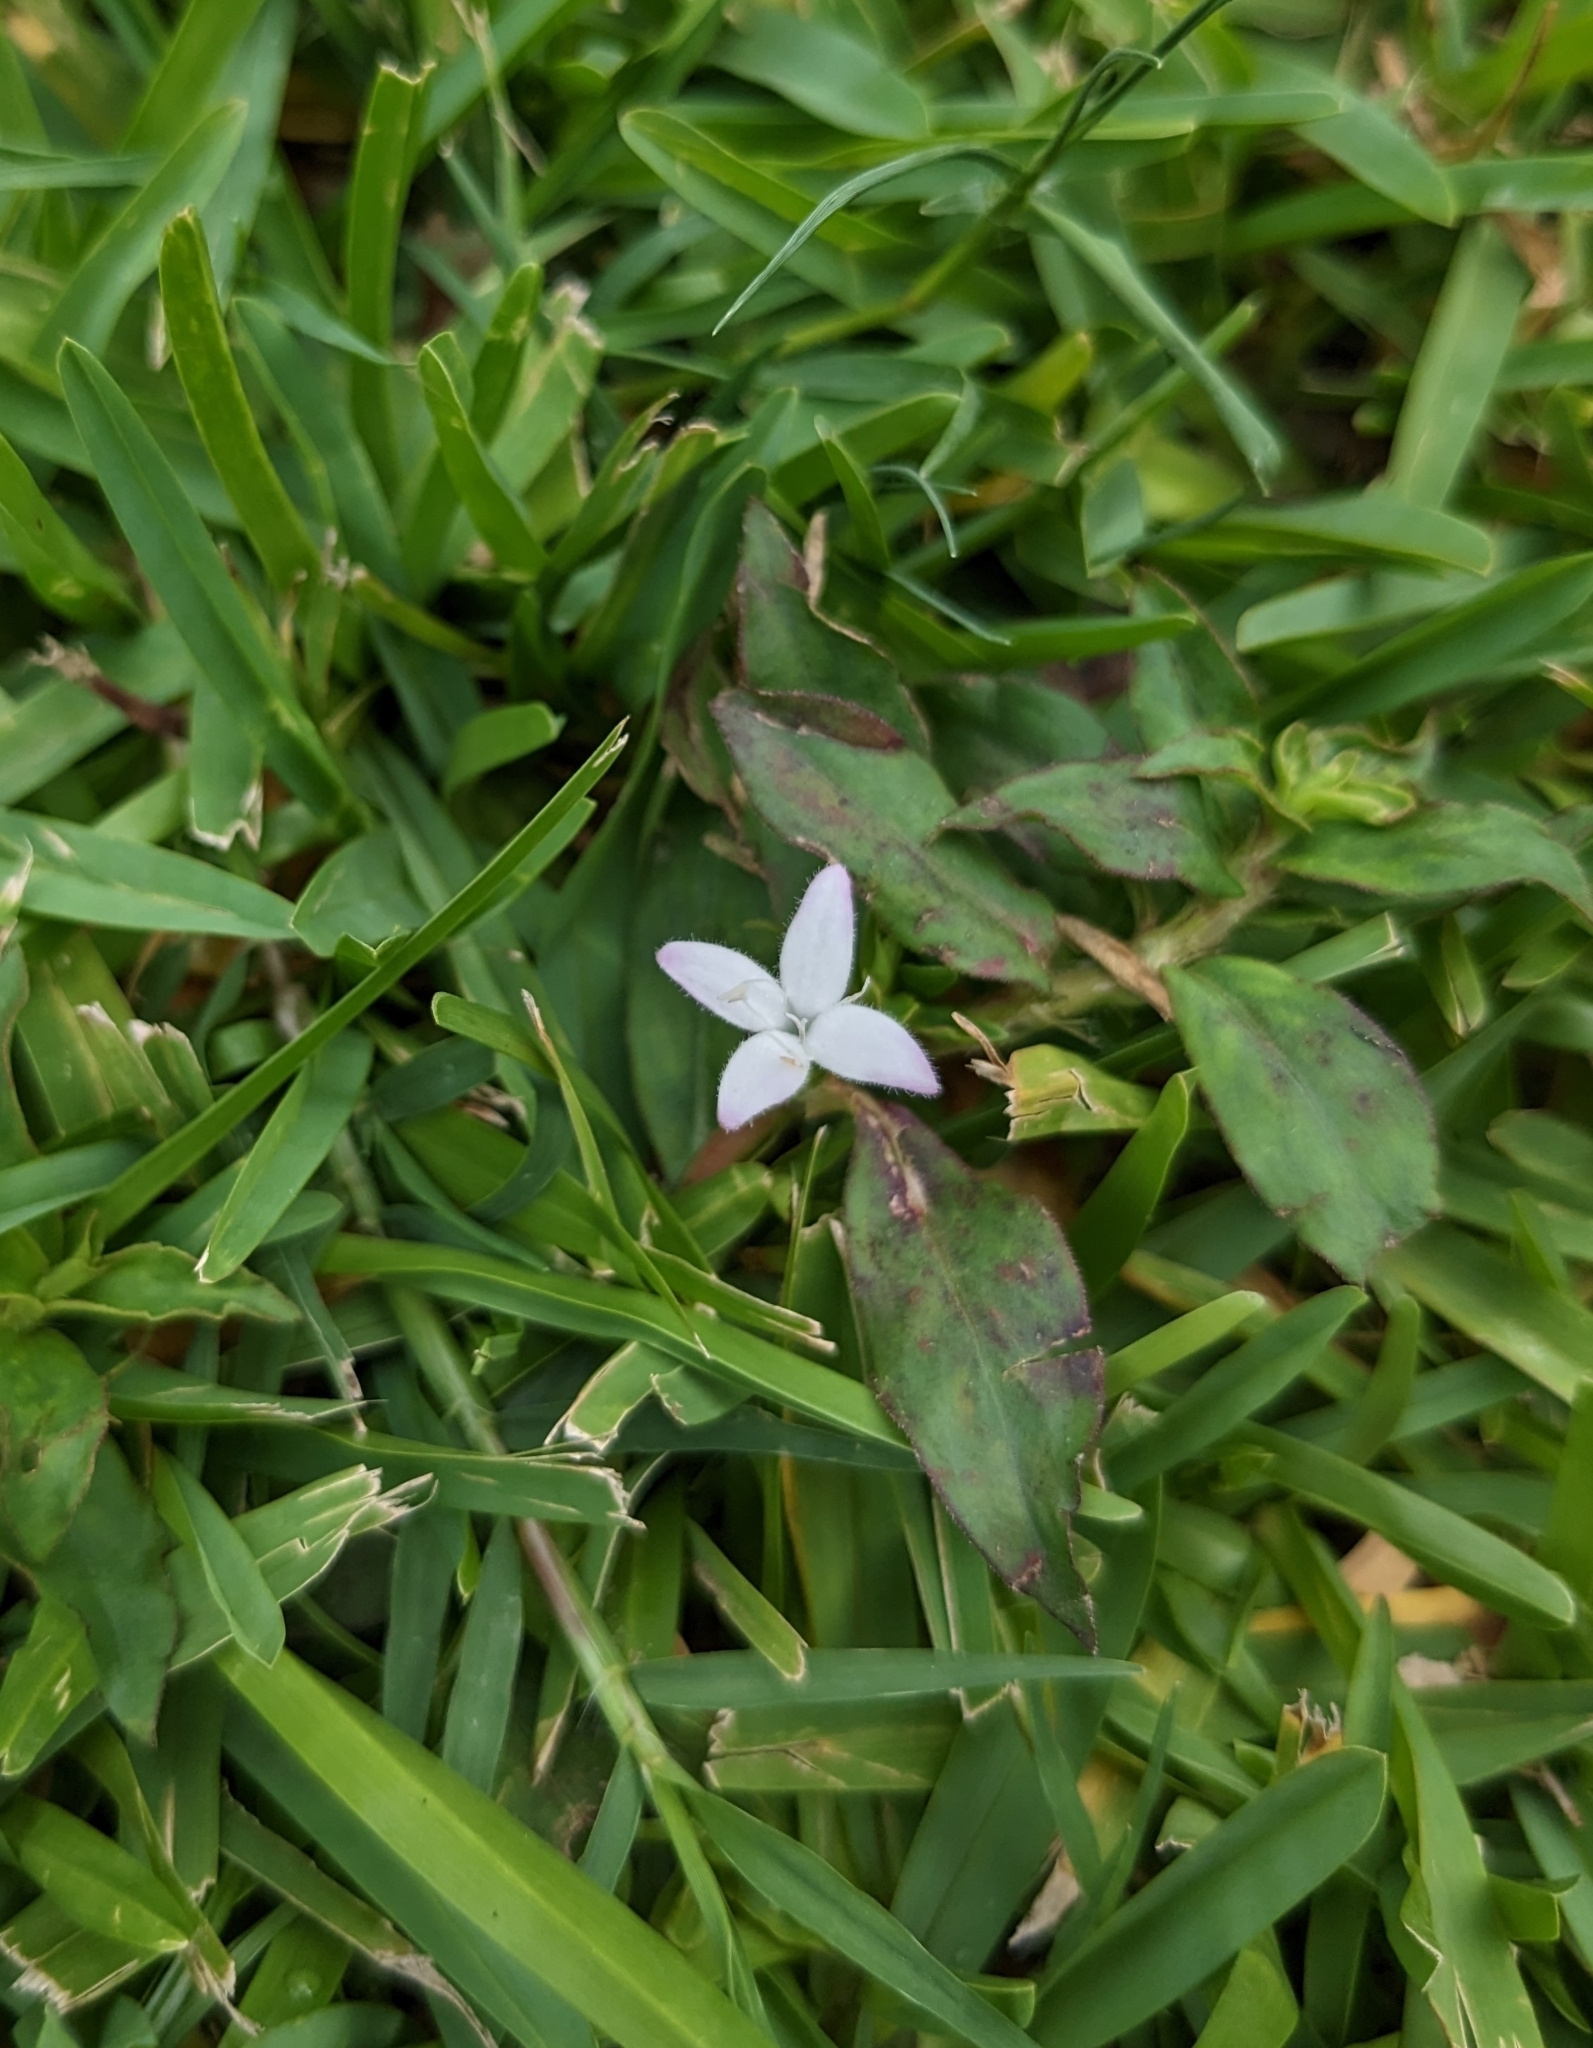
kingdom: Plantae
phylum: Tracheophyta
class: Magnoliopsida
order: Gentianales
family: Rubiaceae
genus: Diodia
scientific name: Diodia virginiana
